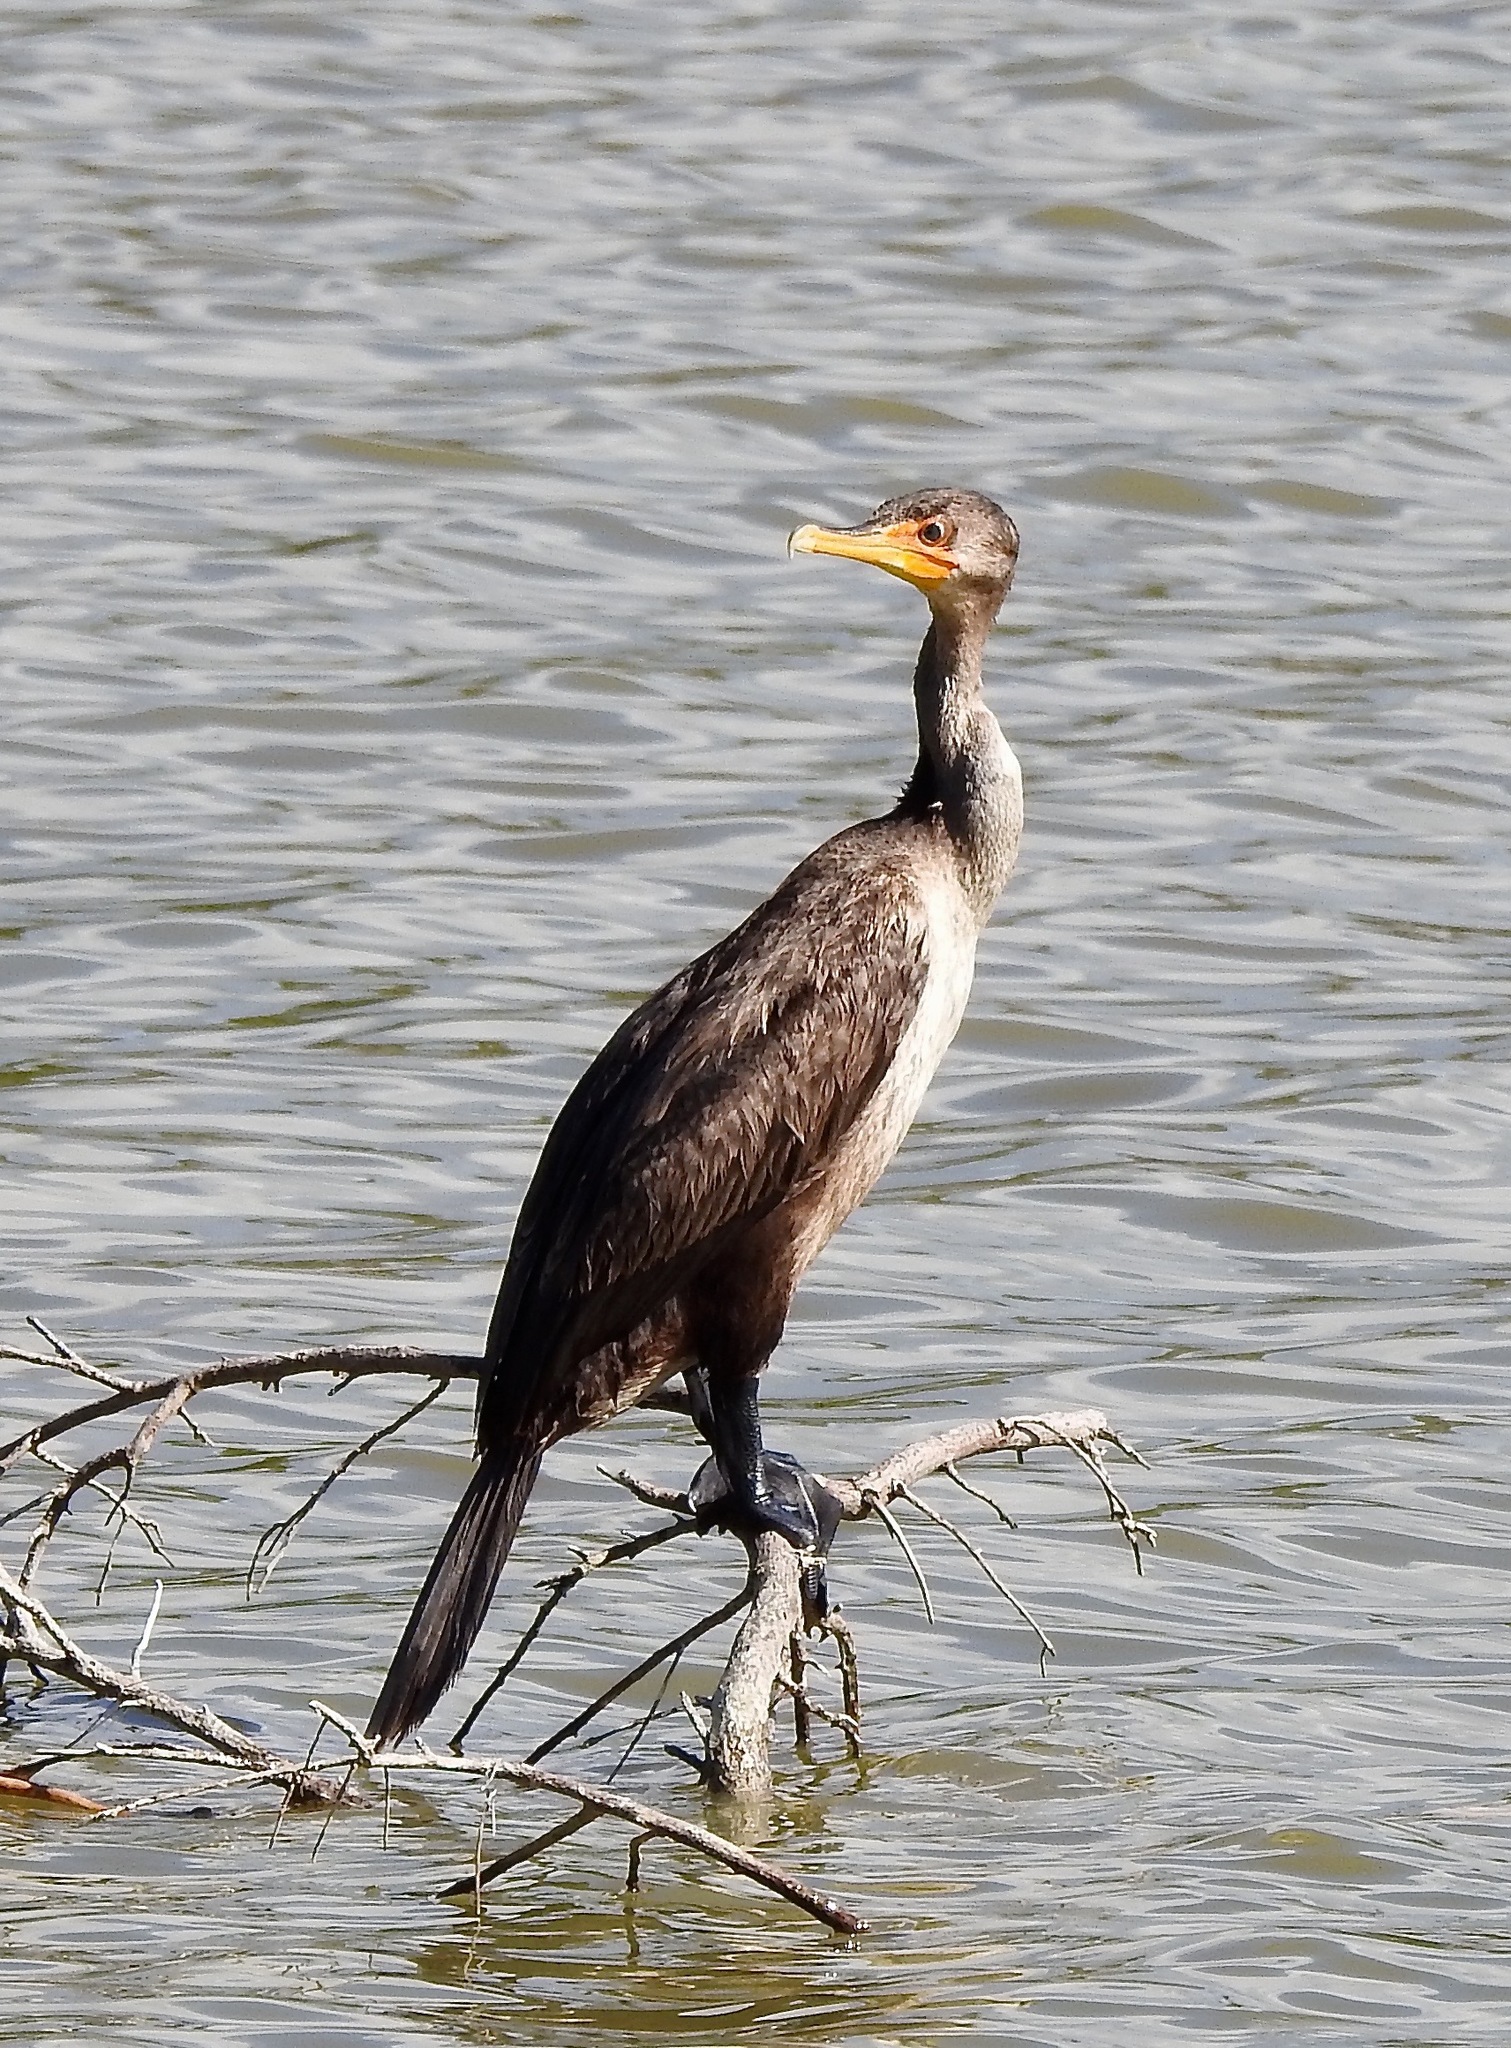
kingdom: Animalia
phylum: Chordata
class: Aves
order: Suliformes
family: Phalacrocoracidae
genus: Phalacrocorax
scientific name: Phalacrocorax auritus
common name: Double-crested cormorant
